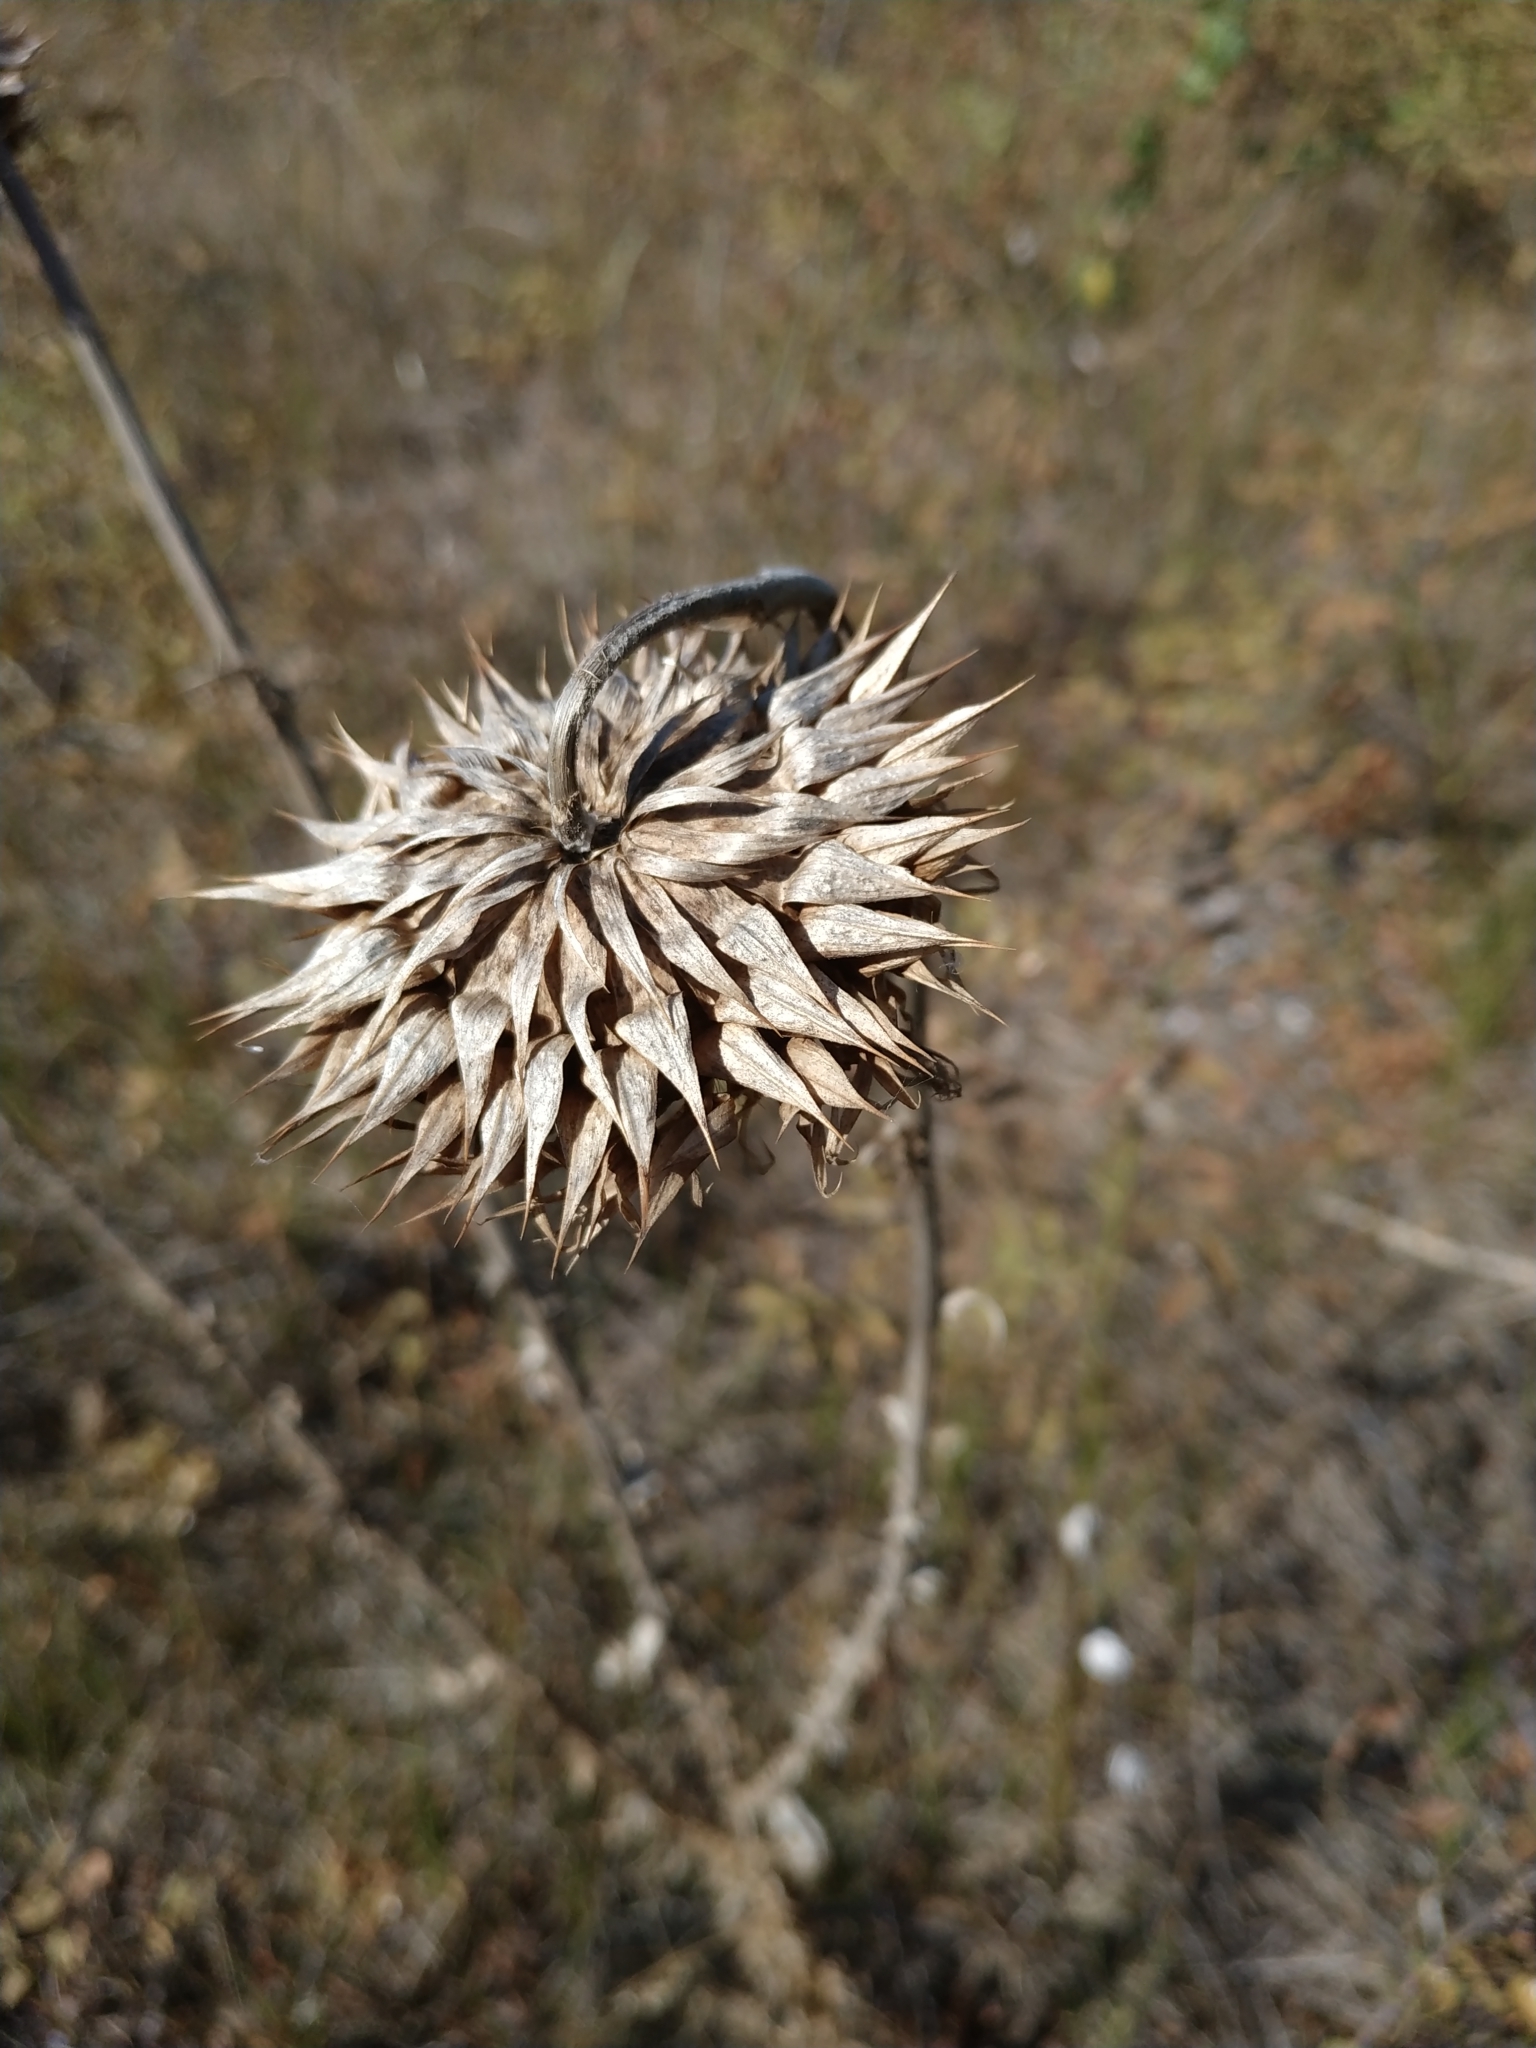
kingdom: Plantae
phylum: Tracheophyta
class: Magnoliopsida
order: Asterales
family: Asteraceae
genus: Carduus
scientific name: Carduus nutans
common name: Musk thistle
